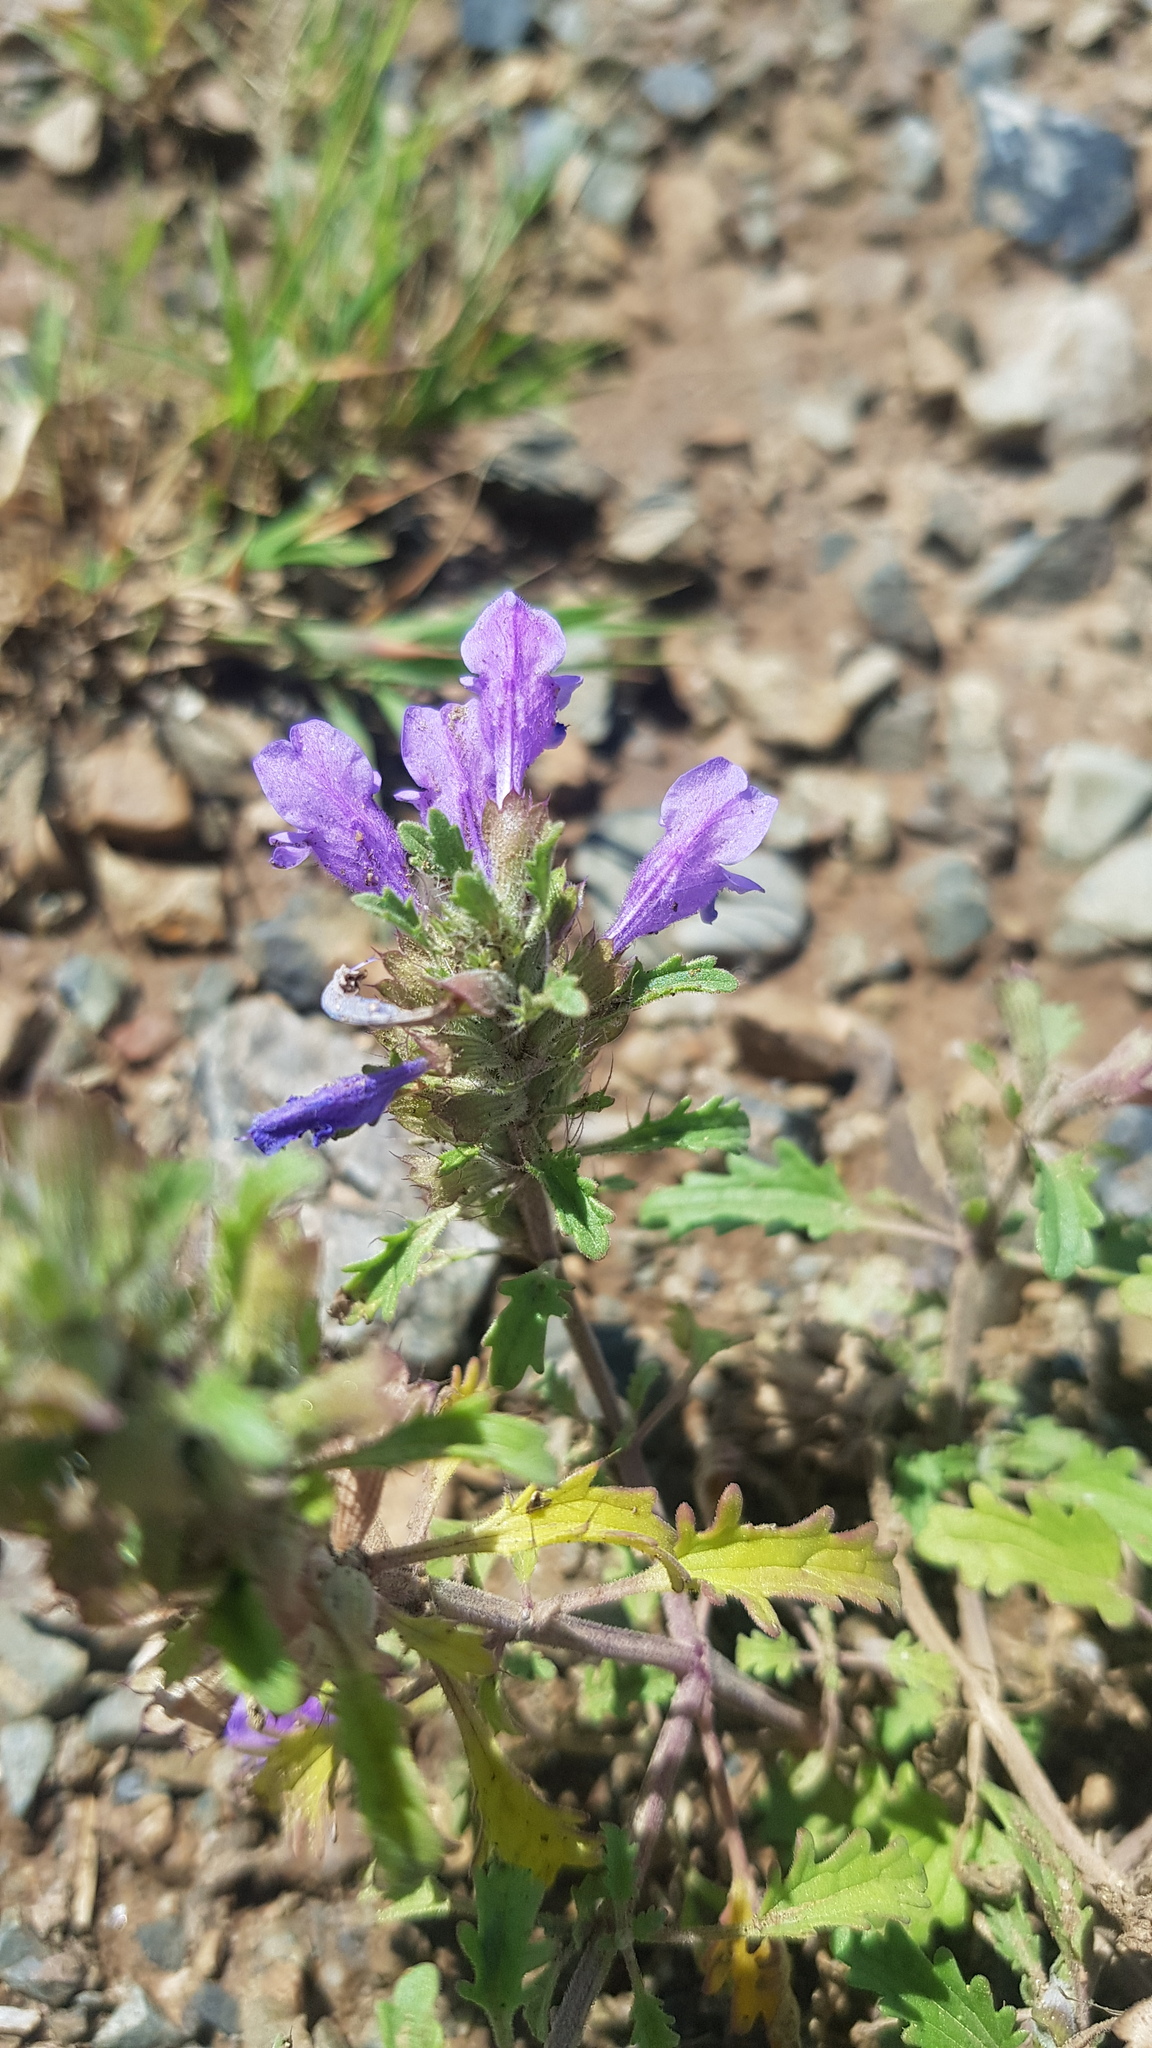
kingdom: Plantae
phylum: Tracheophyta
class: Magnoliopsida
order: Lamiales
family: Lamiaceae
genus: Dracocephalum
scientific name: Dracocephalum foetidum
